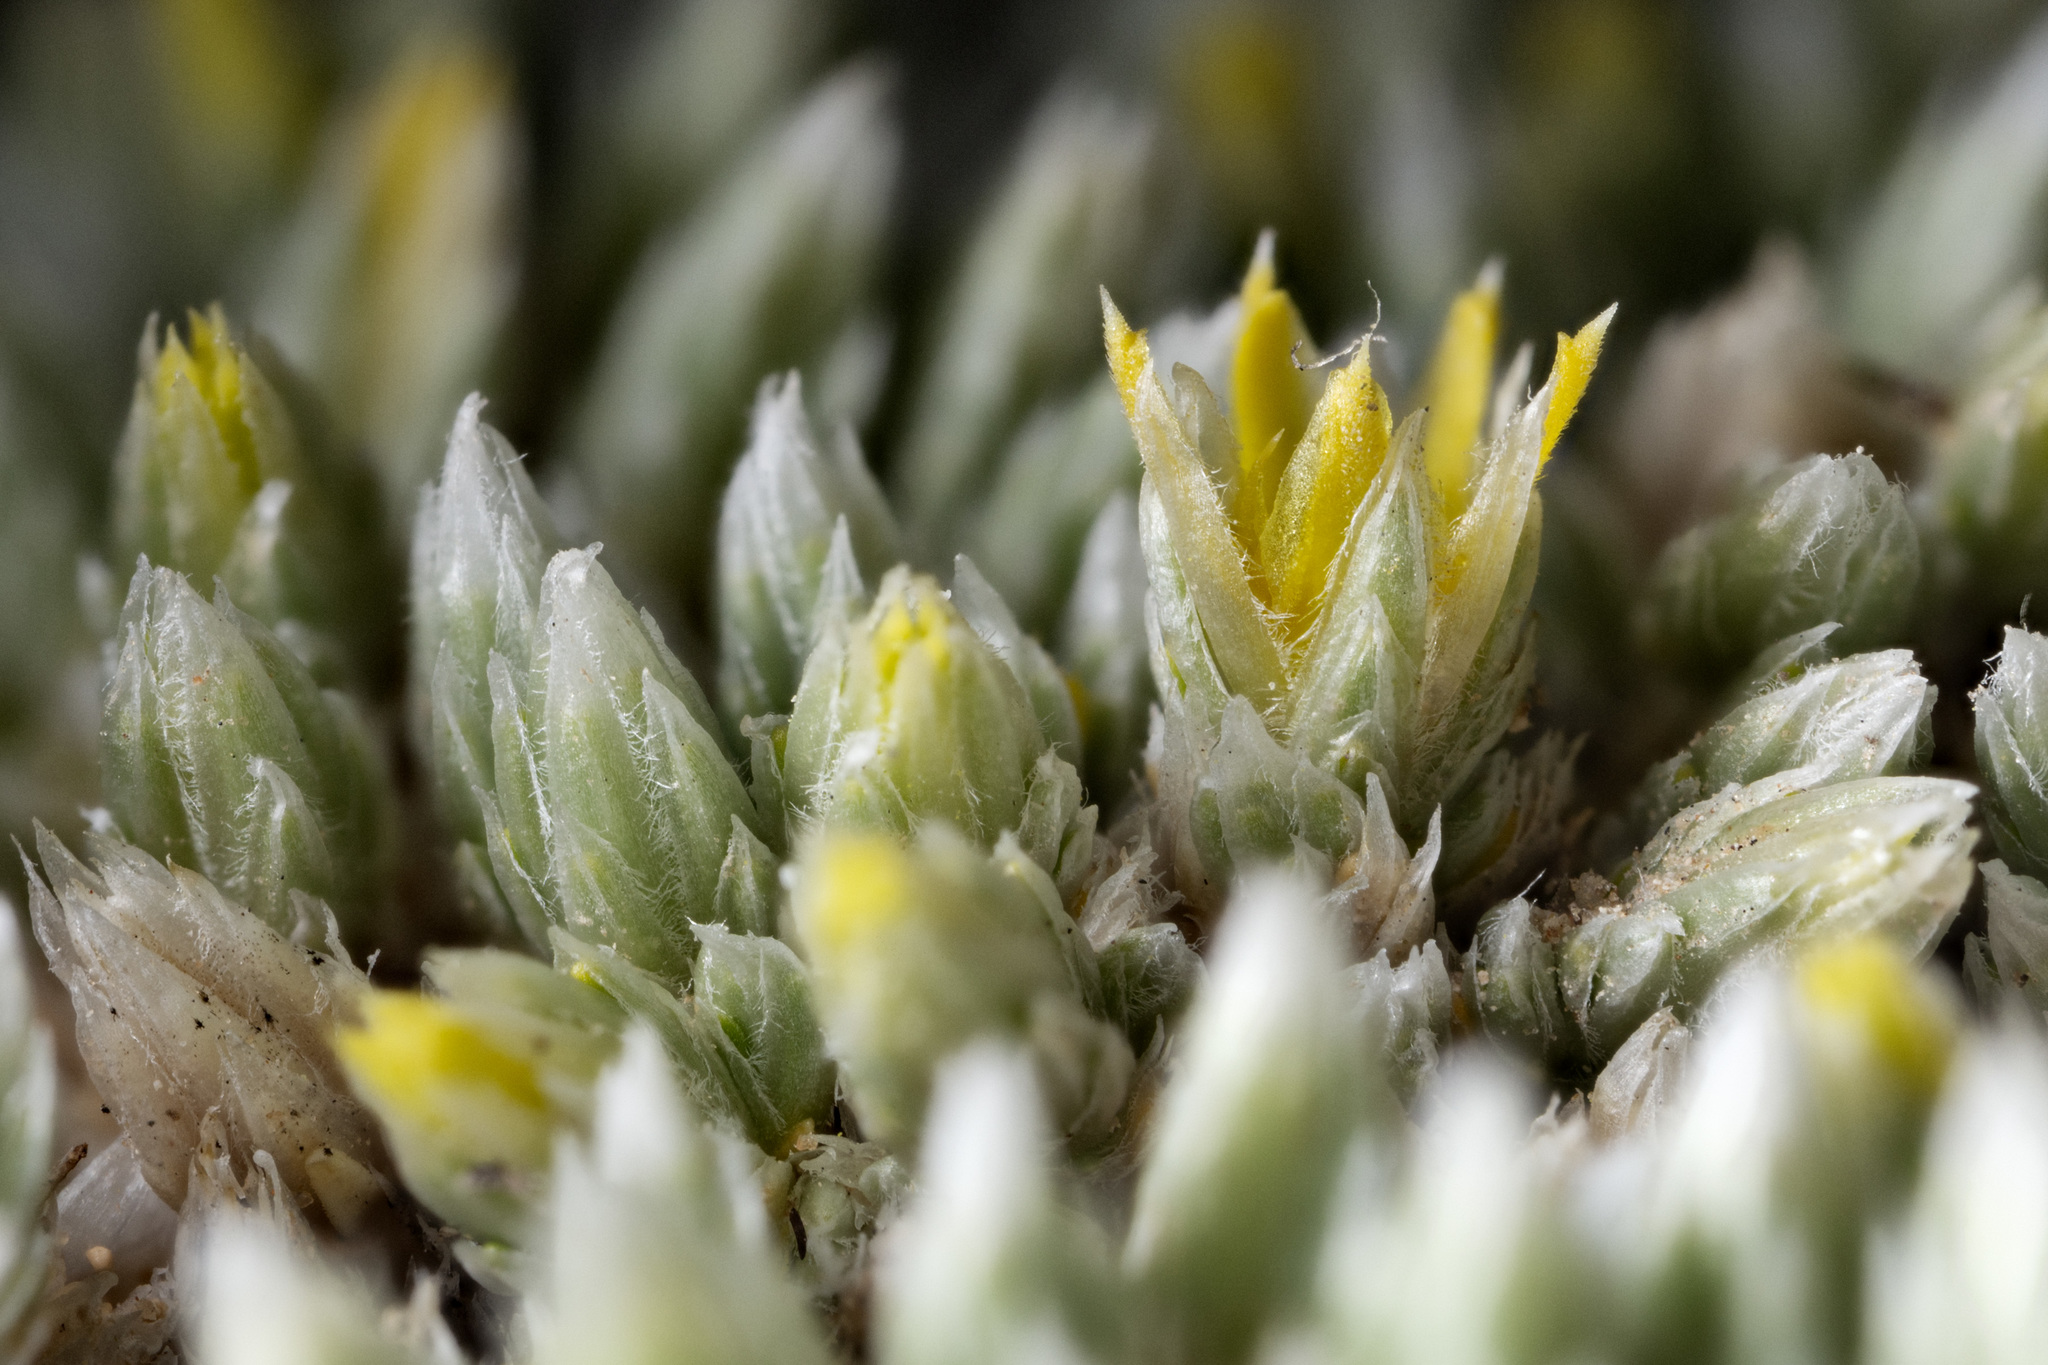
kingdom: Plantae
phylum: Tracheophyta
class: Magnoliopsida
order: Caryophyllales
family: Caryophyllaceae
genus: Paronychia
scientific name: Paronychia sessiliflora
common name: Creeping nailwort
